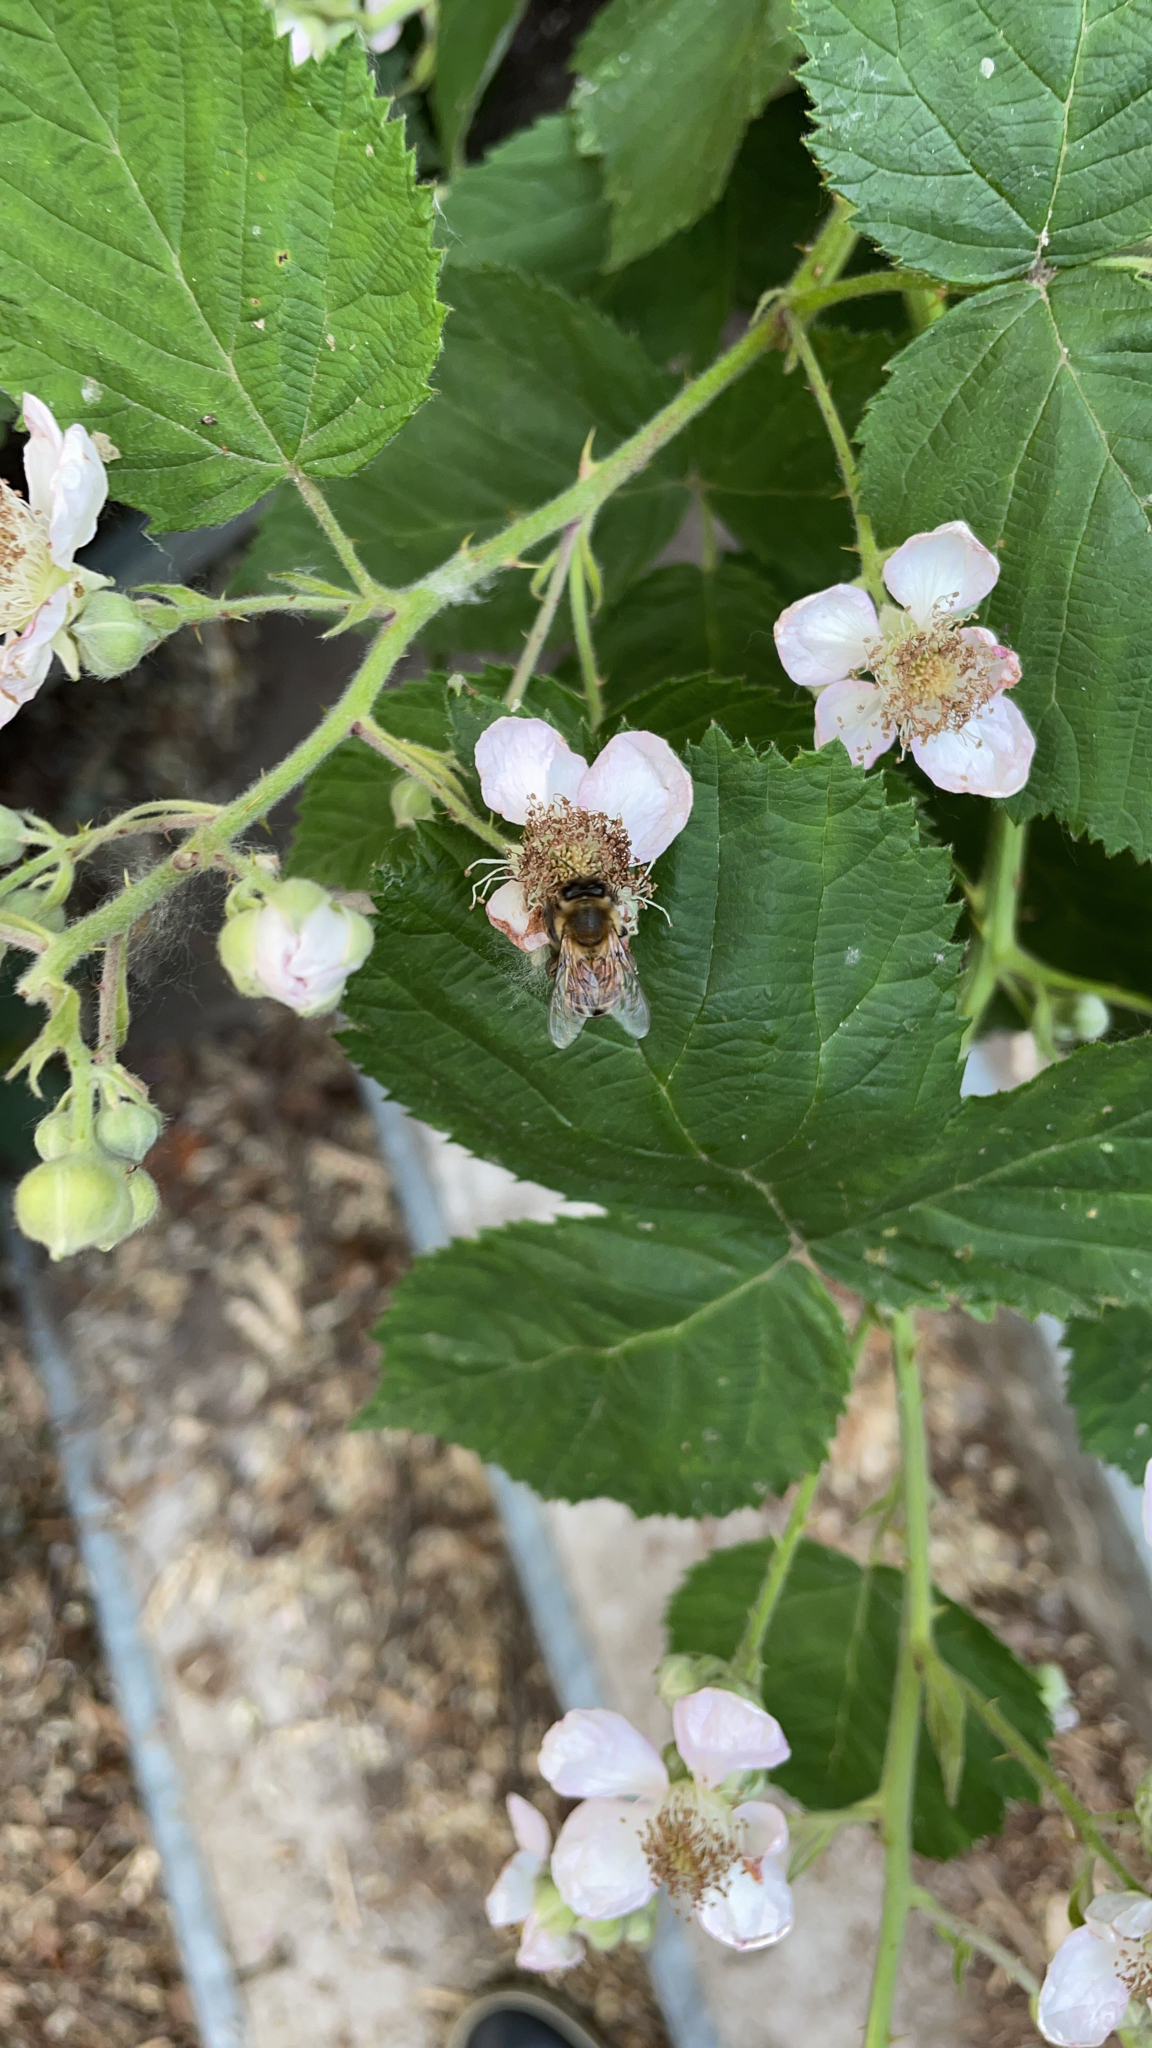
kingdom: Animalia
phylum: Arthropoda
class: Insecta
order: Hymenoptera
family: Apidae
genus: Apis
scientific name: Apis mellifera
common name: Honey bee
